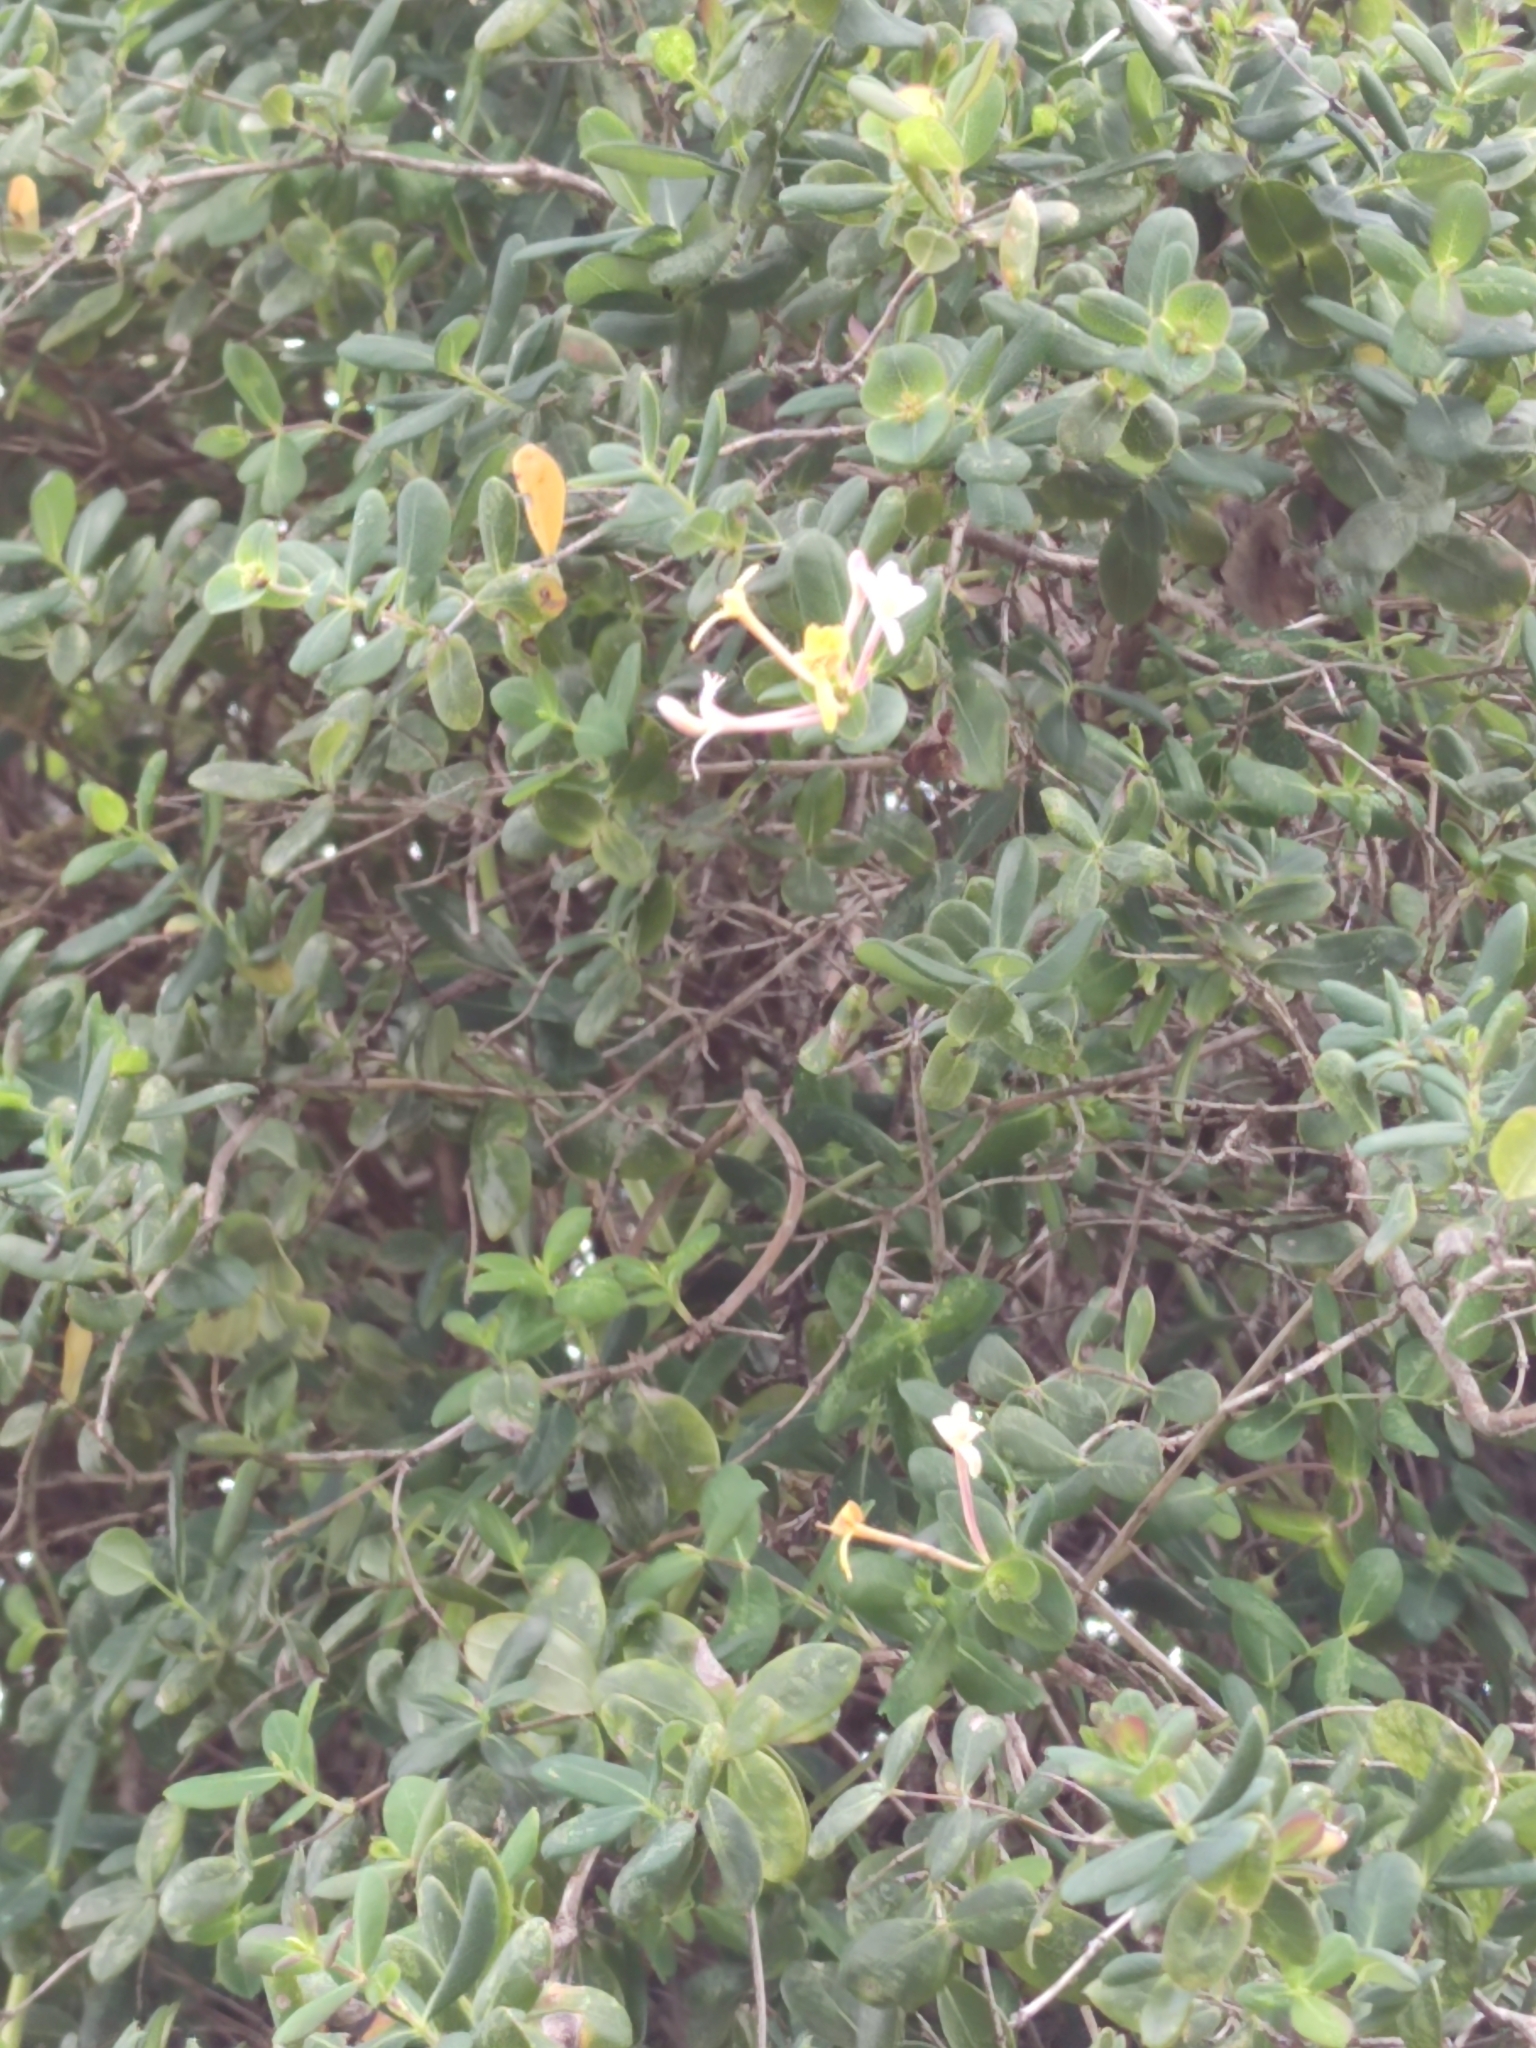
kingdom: Plantae
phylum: Tracheophyta
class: Magnoliopsida
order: Dipsacales
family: Caprifoliaceae
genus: Lonicera
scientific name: Lonicera implexa
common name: Minorca honeysuckle
